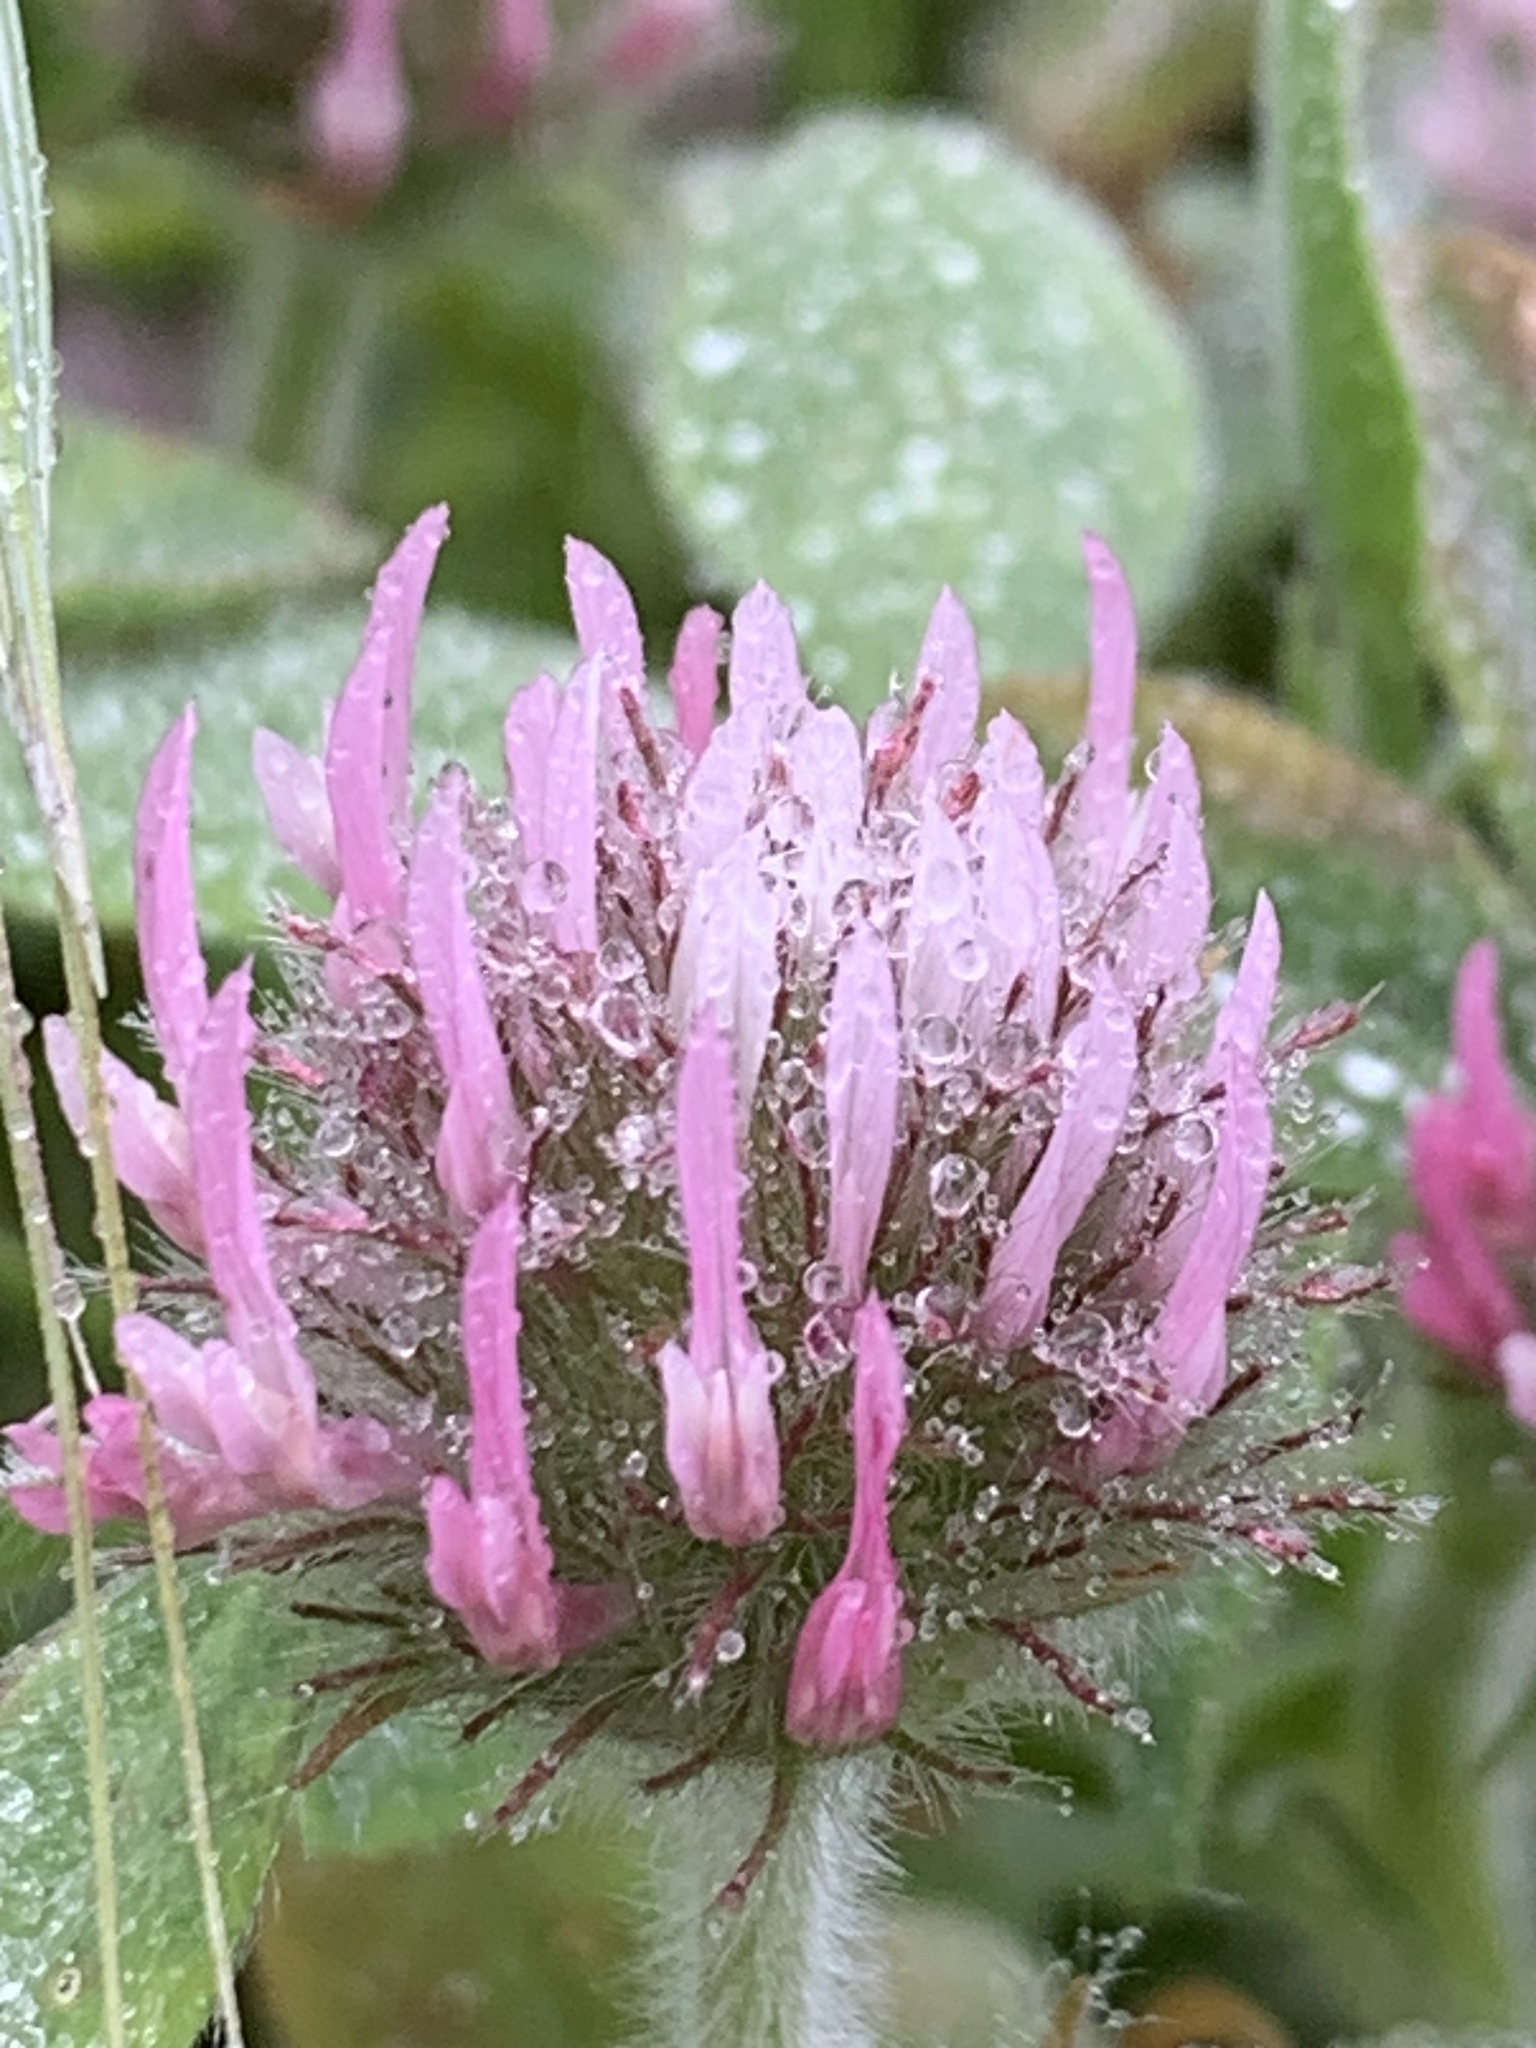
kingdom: Plantae
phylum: Tracheophyta
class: Magnoliopsida
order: Fabales
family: Fabaceae
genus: Trifolium
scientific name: Trifolium hirtum
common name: Rose clover
